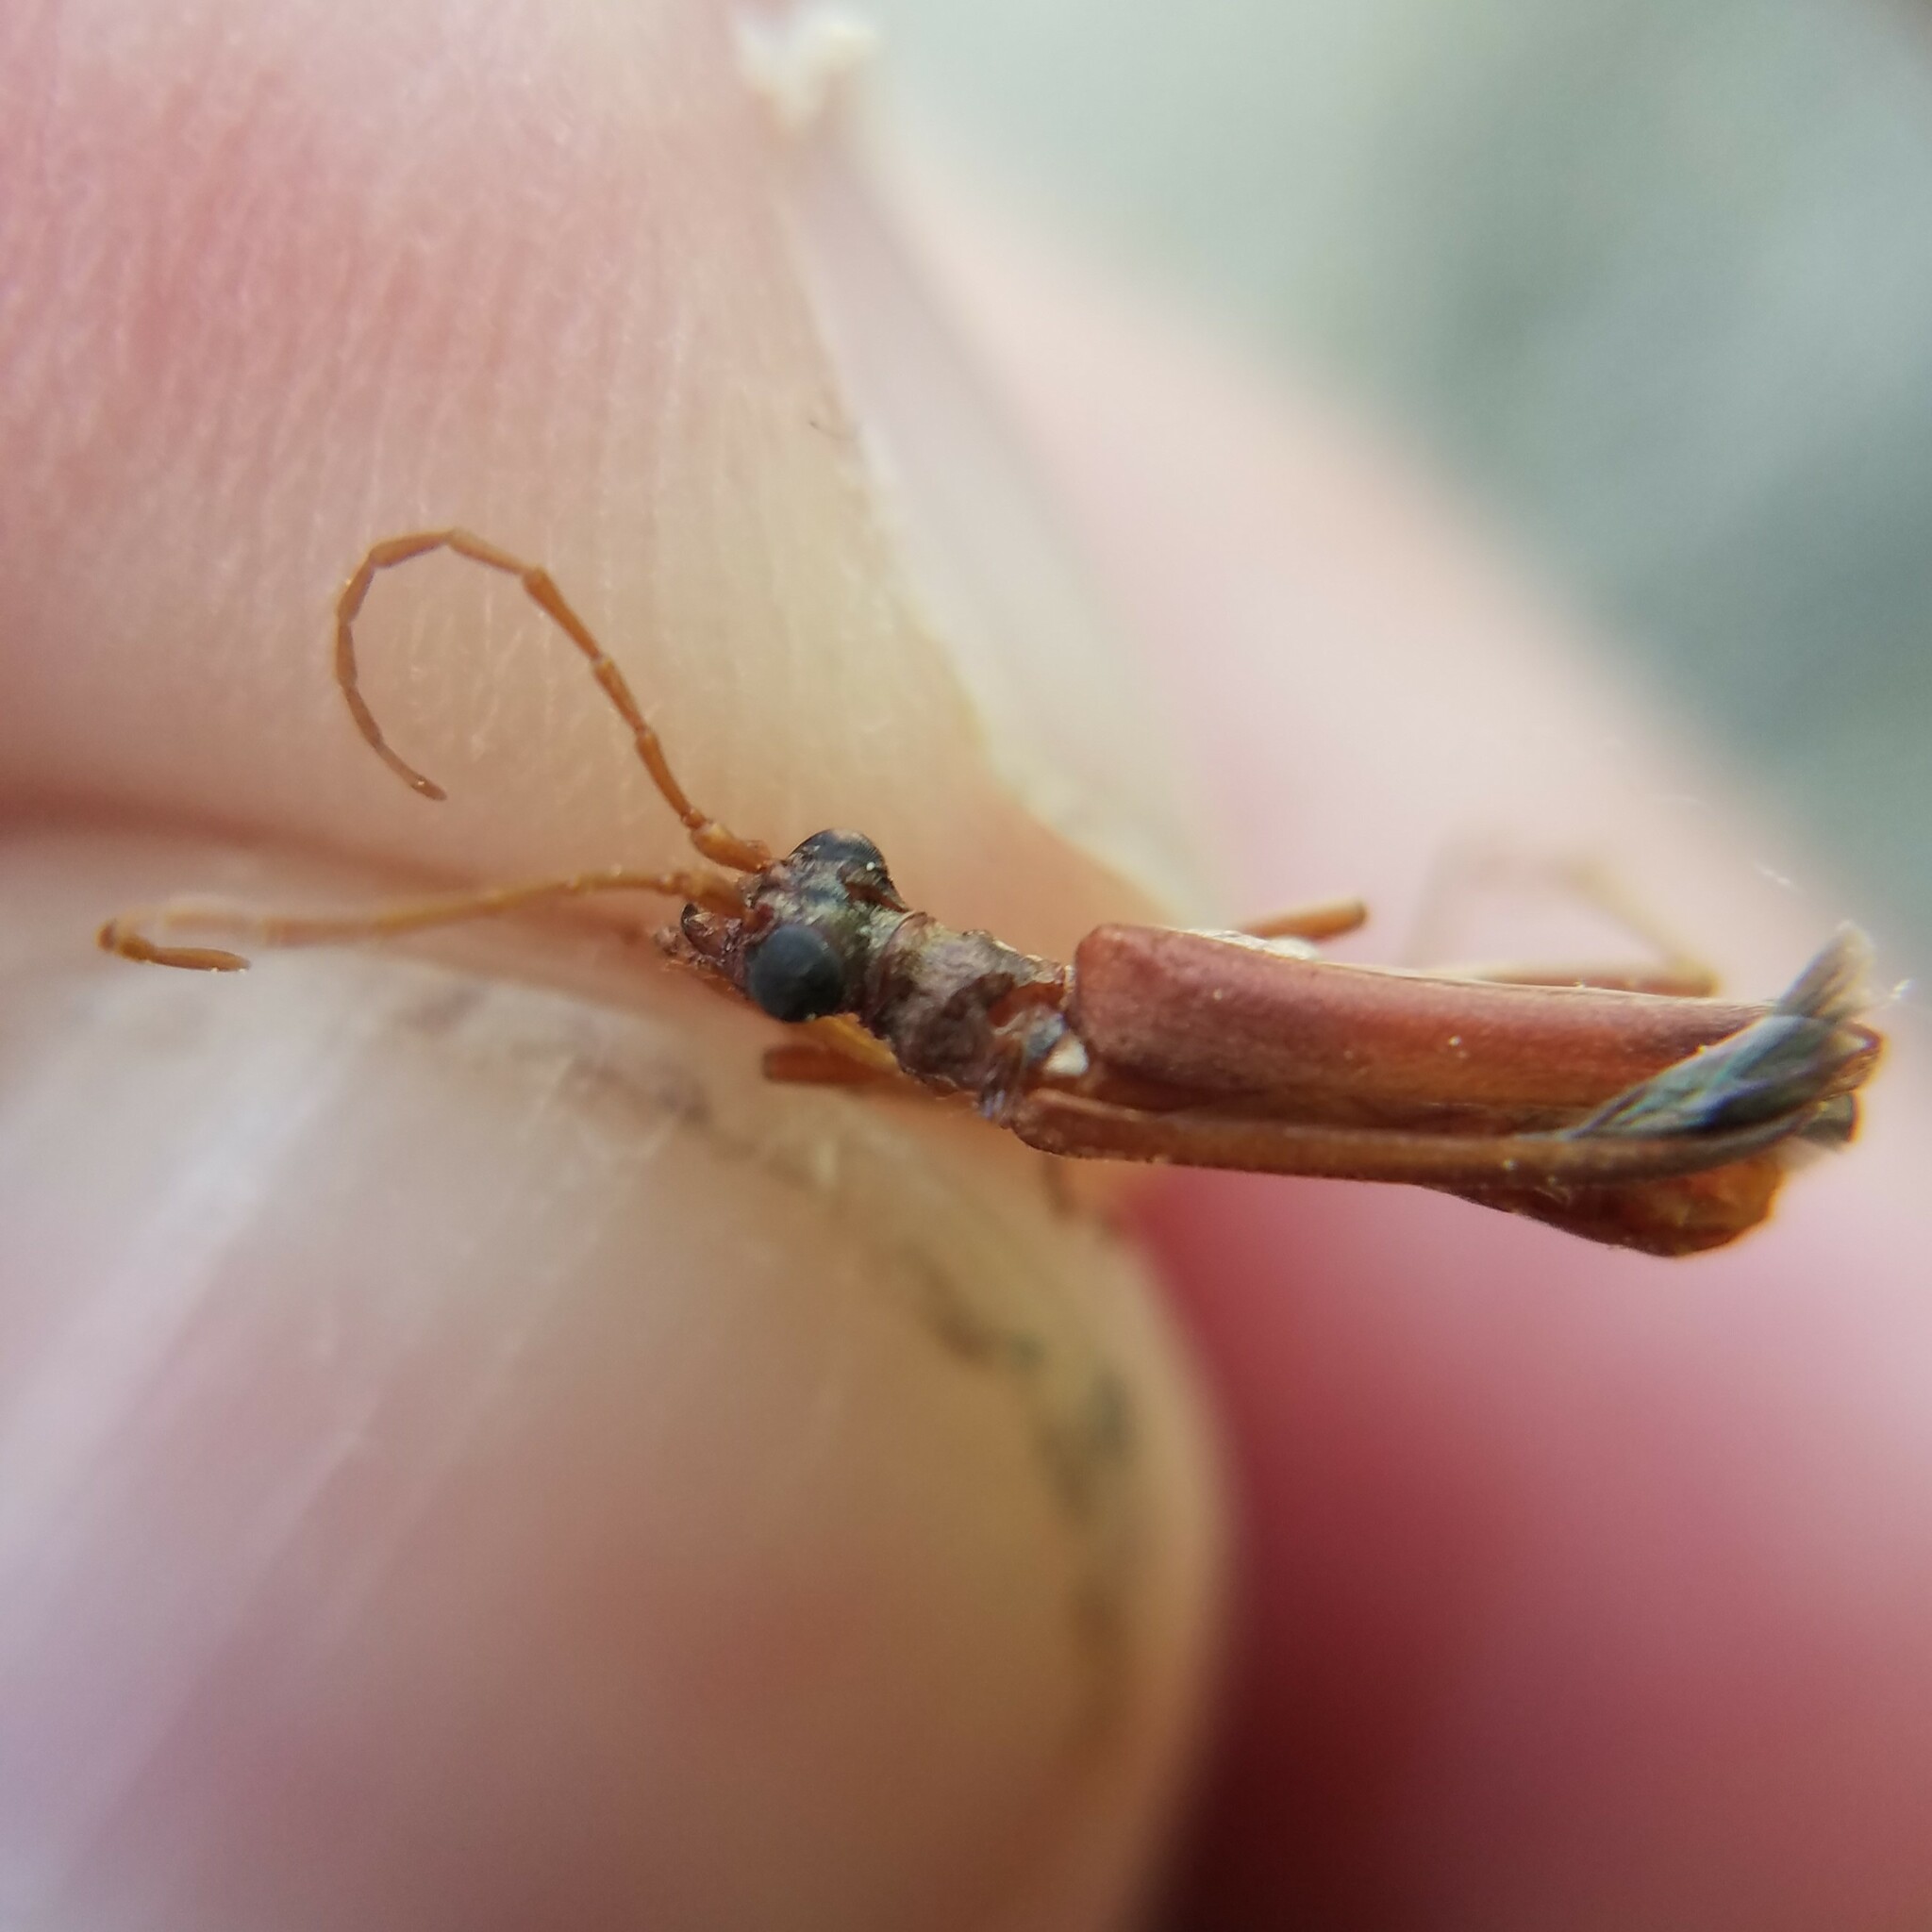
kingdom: Animalia
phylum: Arthropoda
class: Insecta
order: Coleoptera
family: Cerambycidae
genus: Stenocorus
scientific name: Stenocorus cinnamopterus
